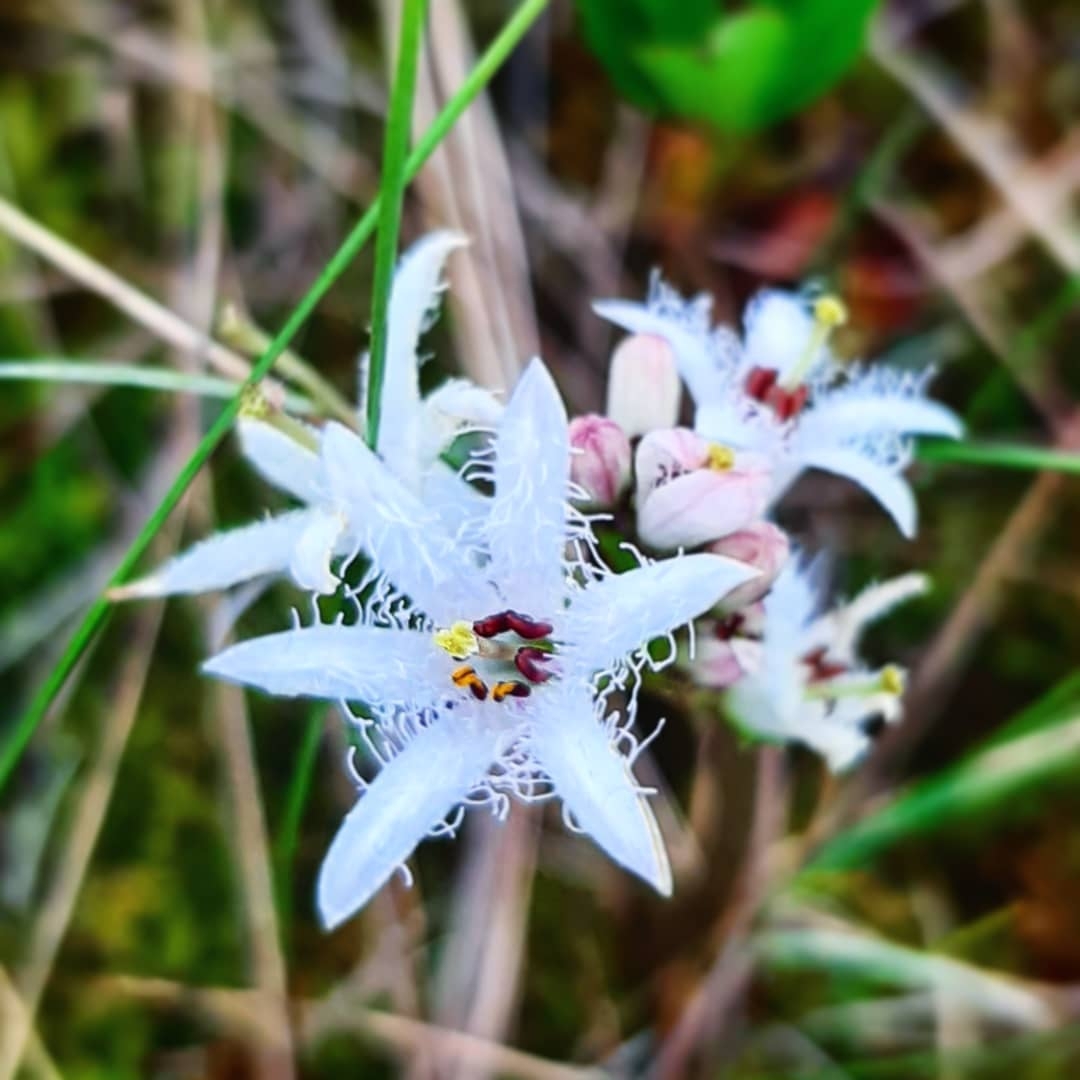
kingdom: Plantae
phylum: Tracheophyta
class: Magnoliopsida
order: Asterales
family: Menyanthaceae
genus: Menyanthes
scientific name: Menyanthes trifoliata
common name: Bogbean
